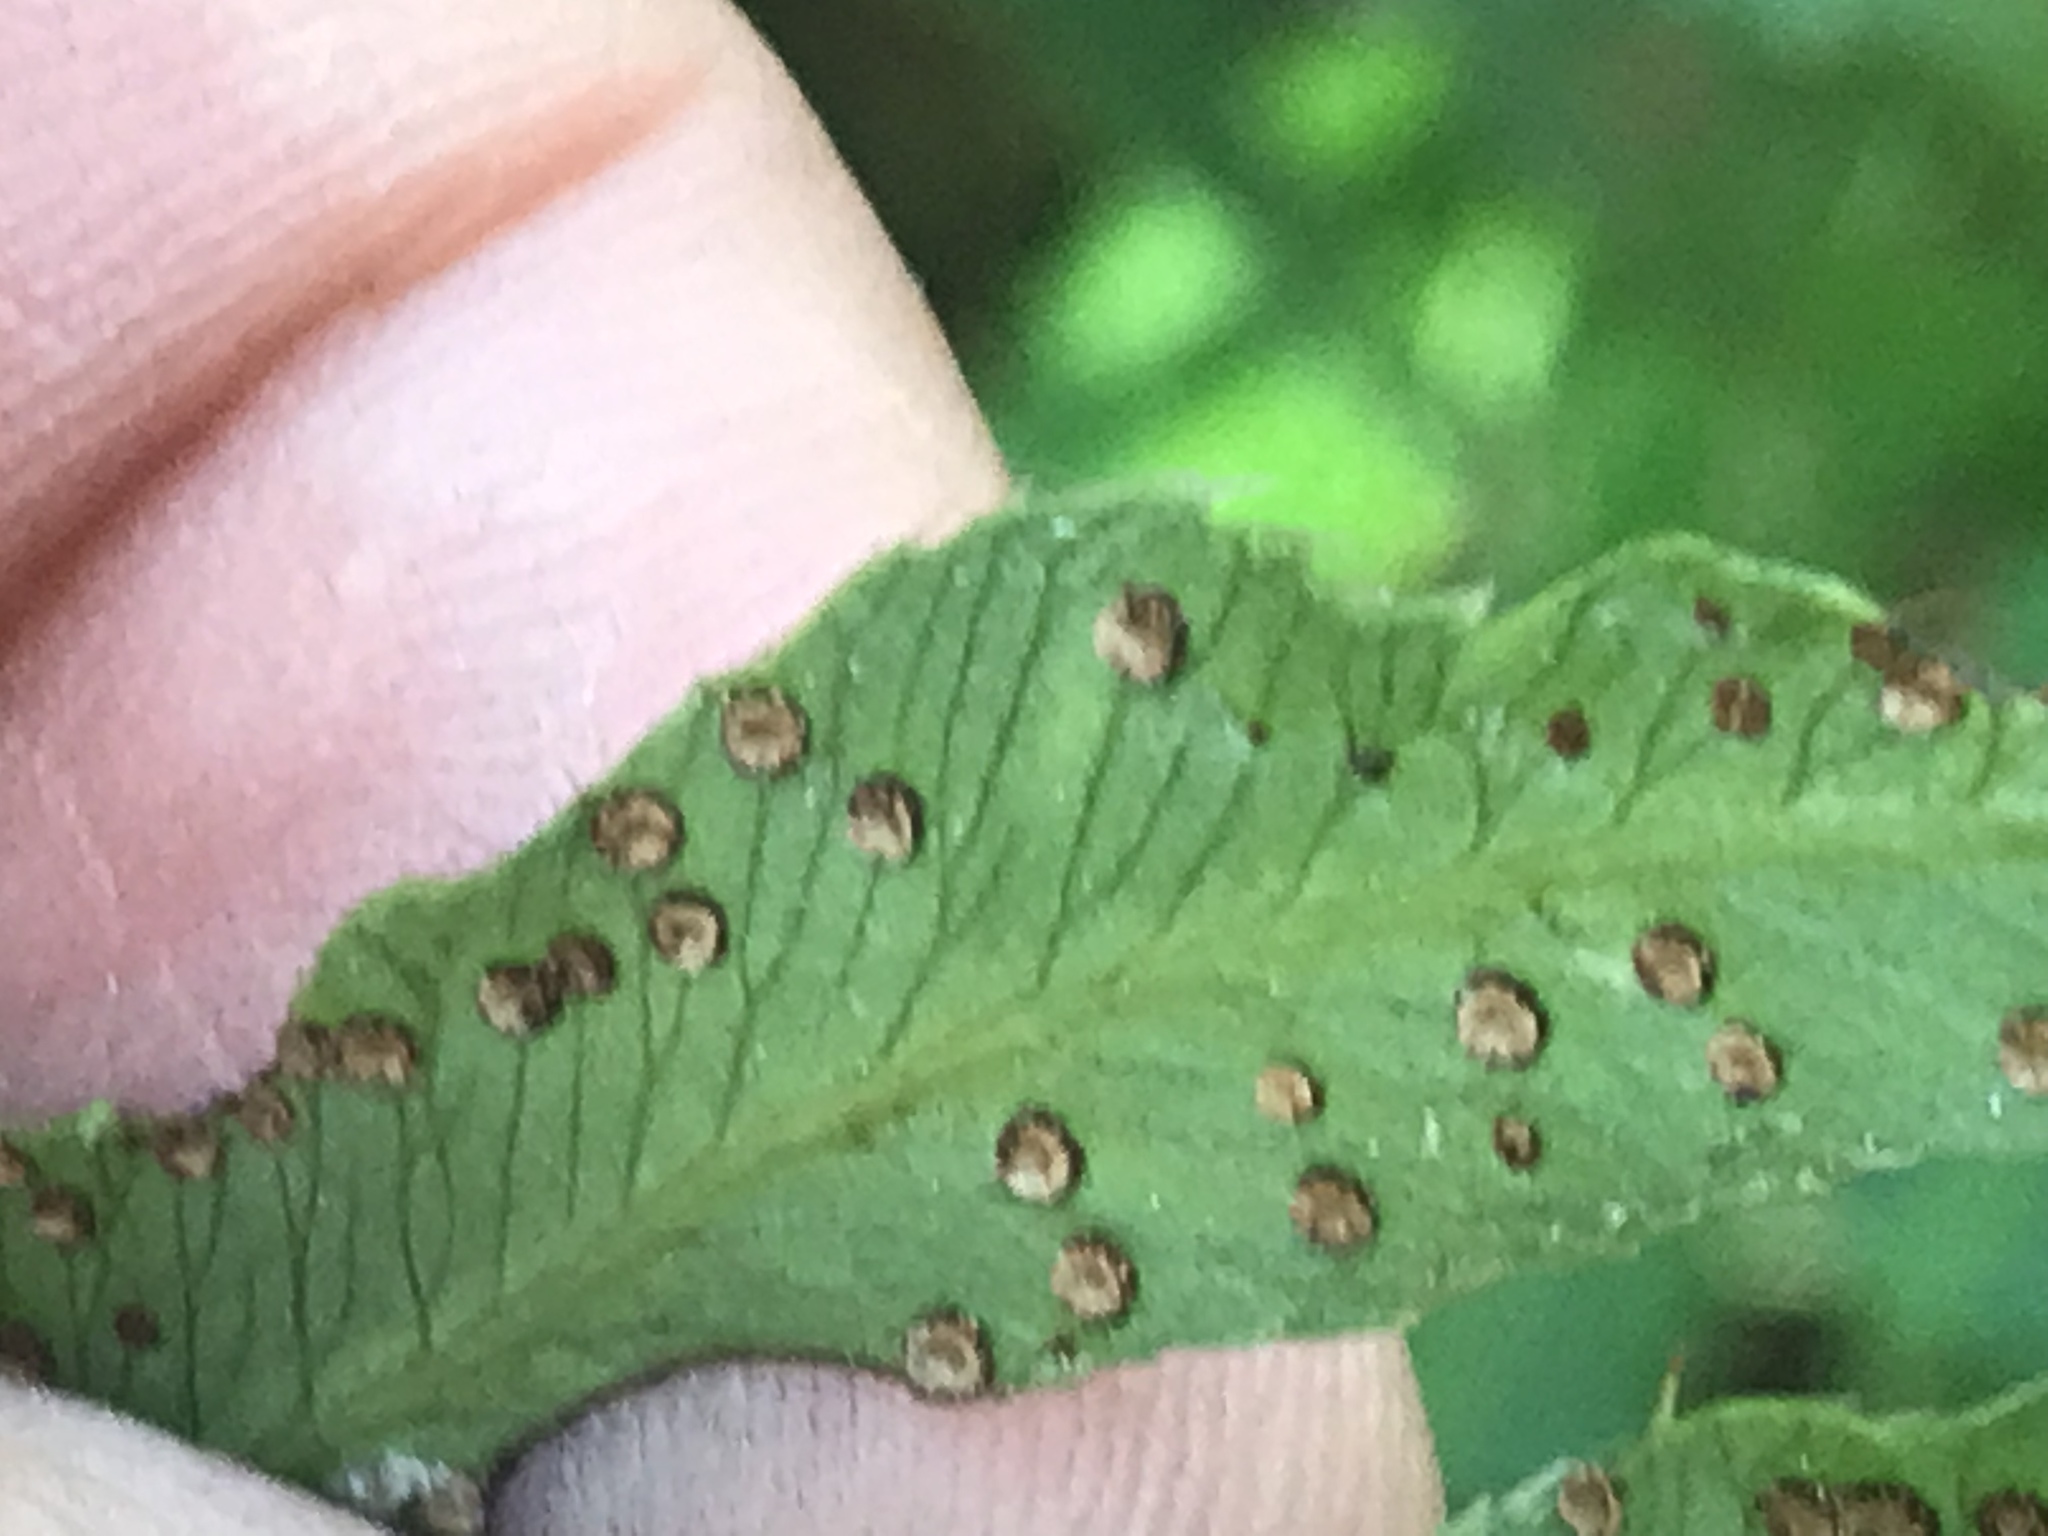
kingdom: Plantae
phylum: Tracheophyta
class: Polypodiopsida
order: Polypodiales
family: Dryopteridaceae
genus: Phanerophlebia
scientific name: Phanerophlebia umbonata
